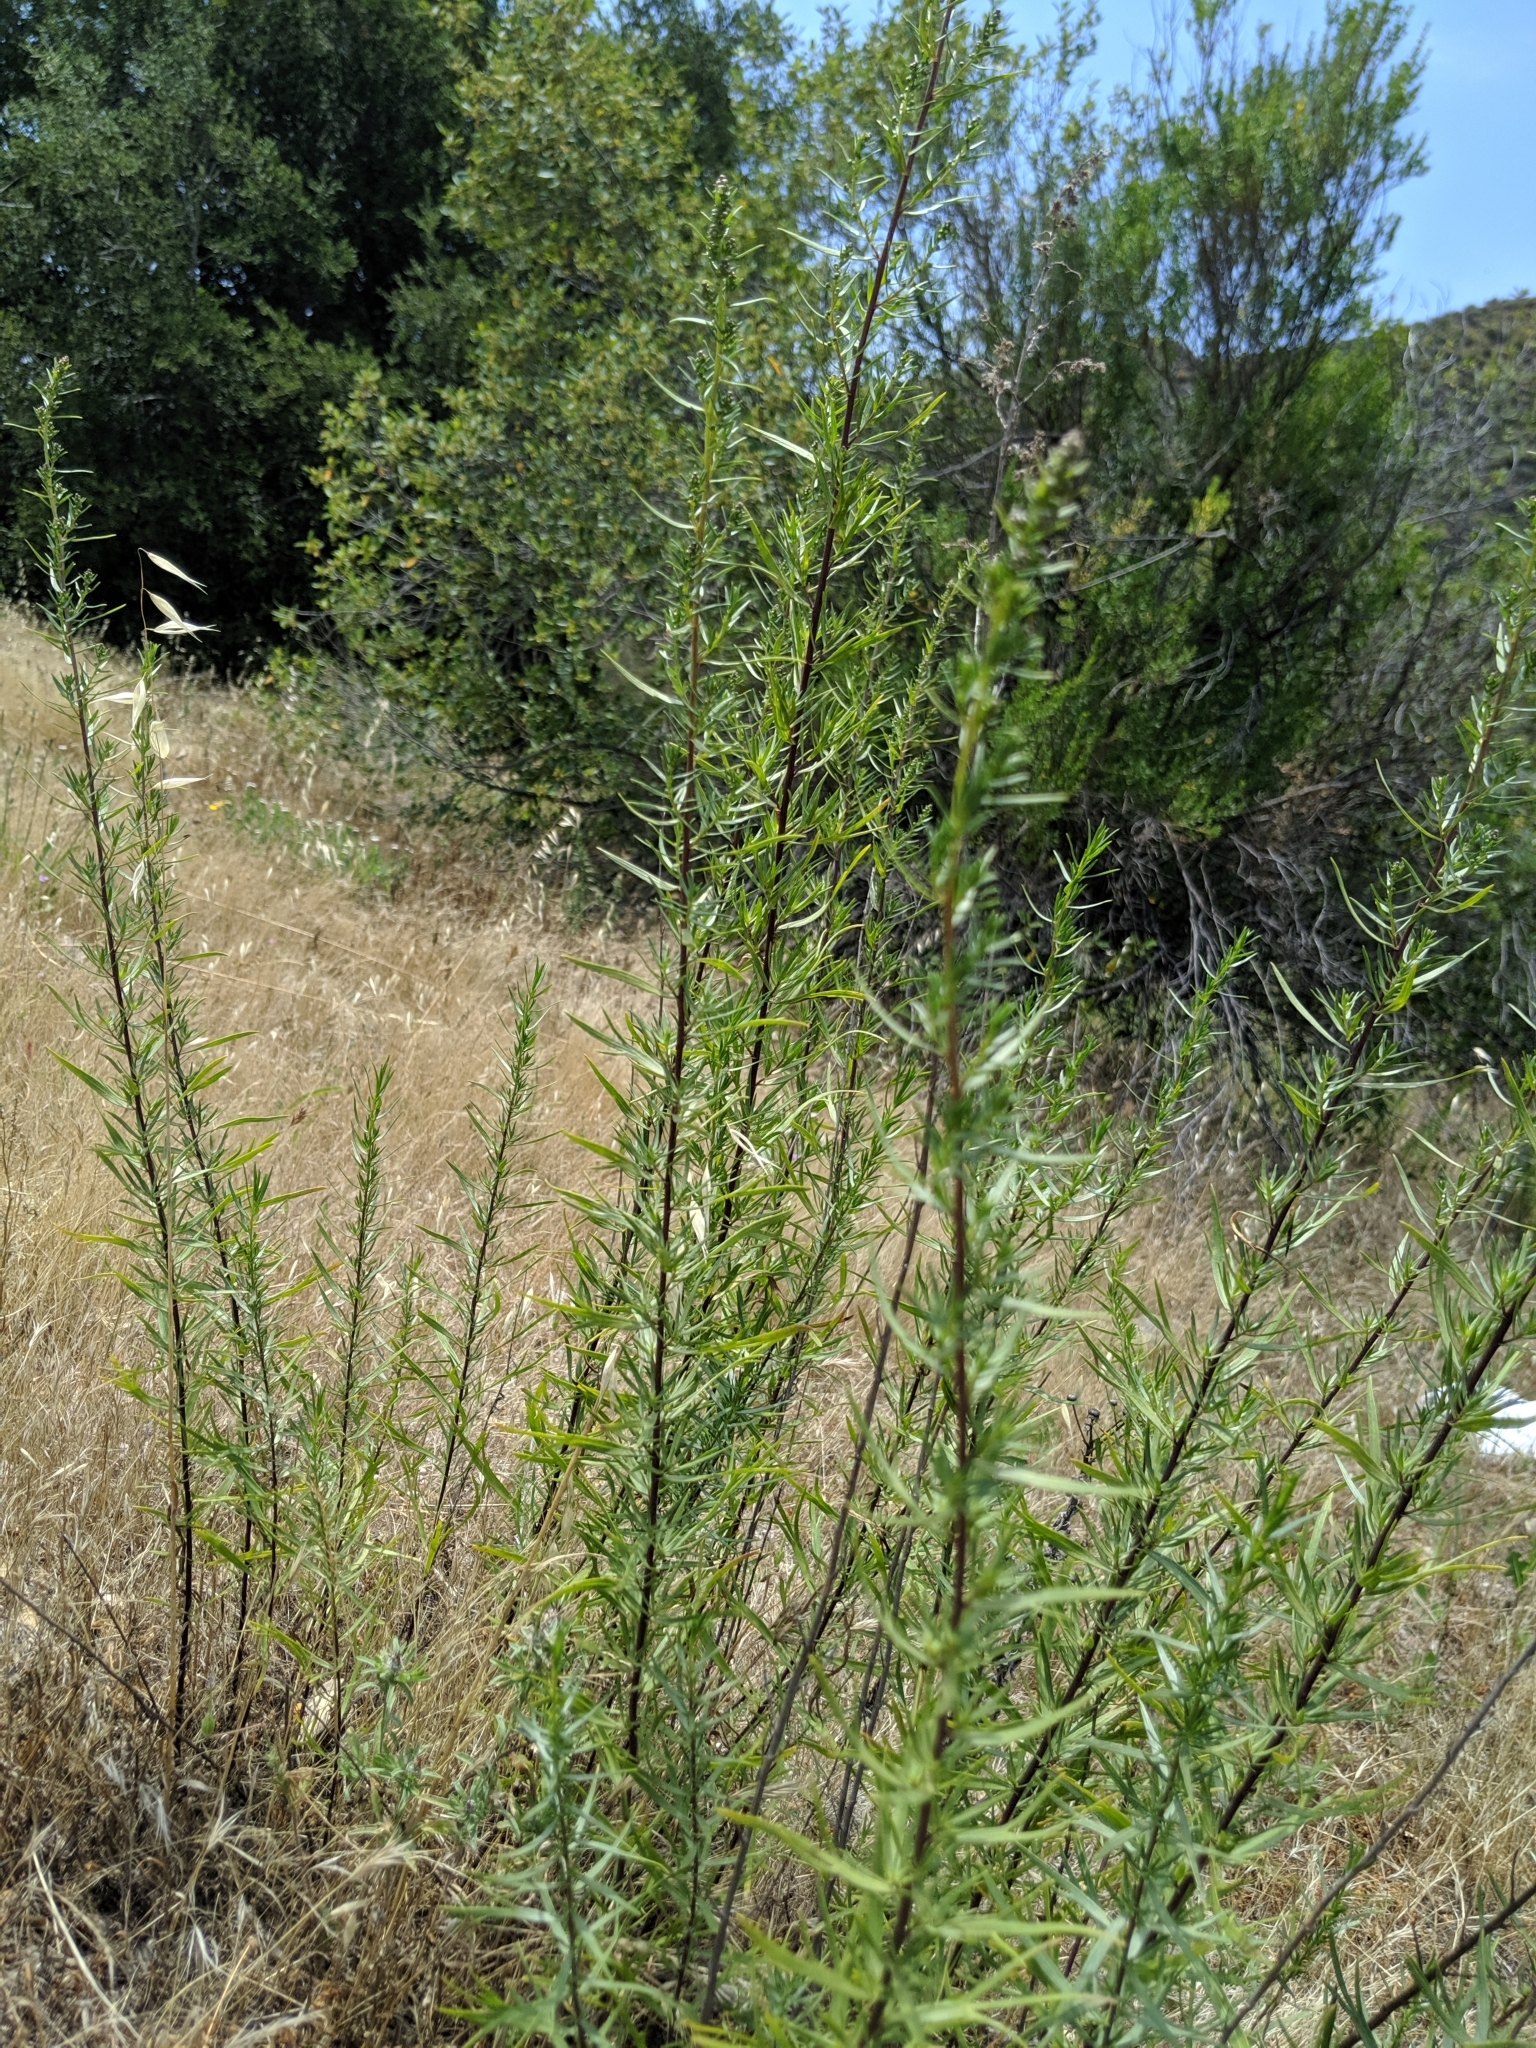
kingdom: Plantae
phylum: Tracheophyta
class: Magnoliopsida
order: Asterales
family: Asteraceae
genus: Artemisia
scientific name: Artemisia dracunculus
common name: Tarragon
